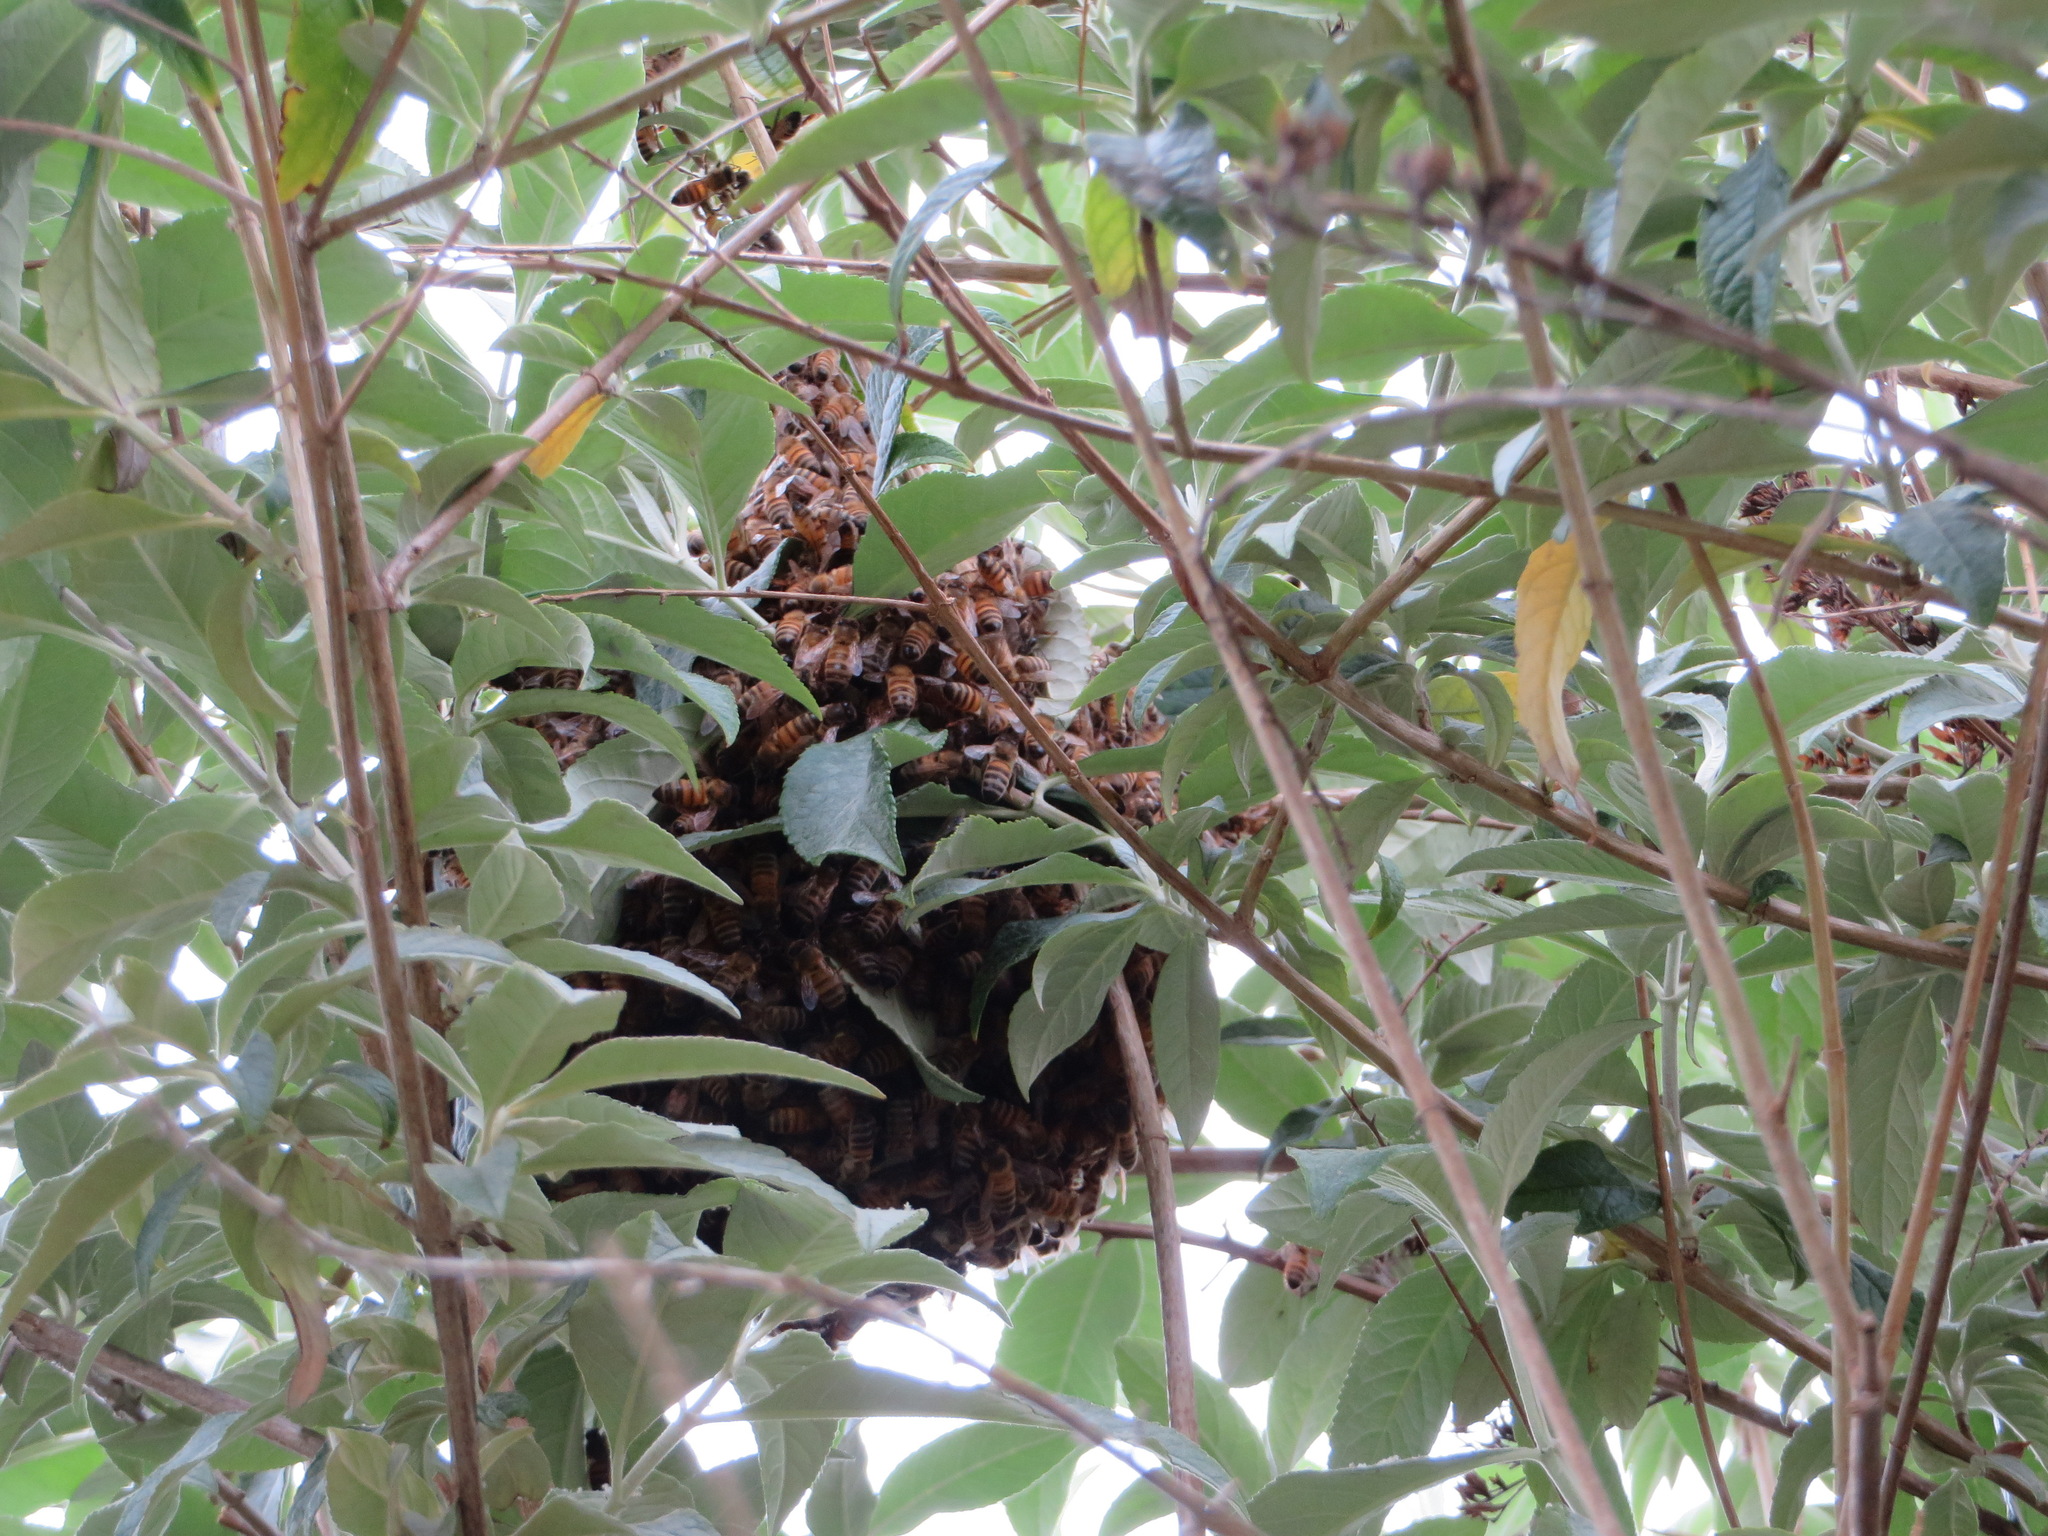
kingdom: Animalia
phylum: Arthropoda
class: Insecta
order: Hymenoptera
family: Apidae
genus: Apis
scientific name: Apis mellifera
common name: Honey bee
